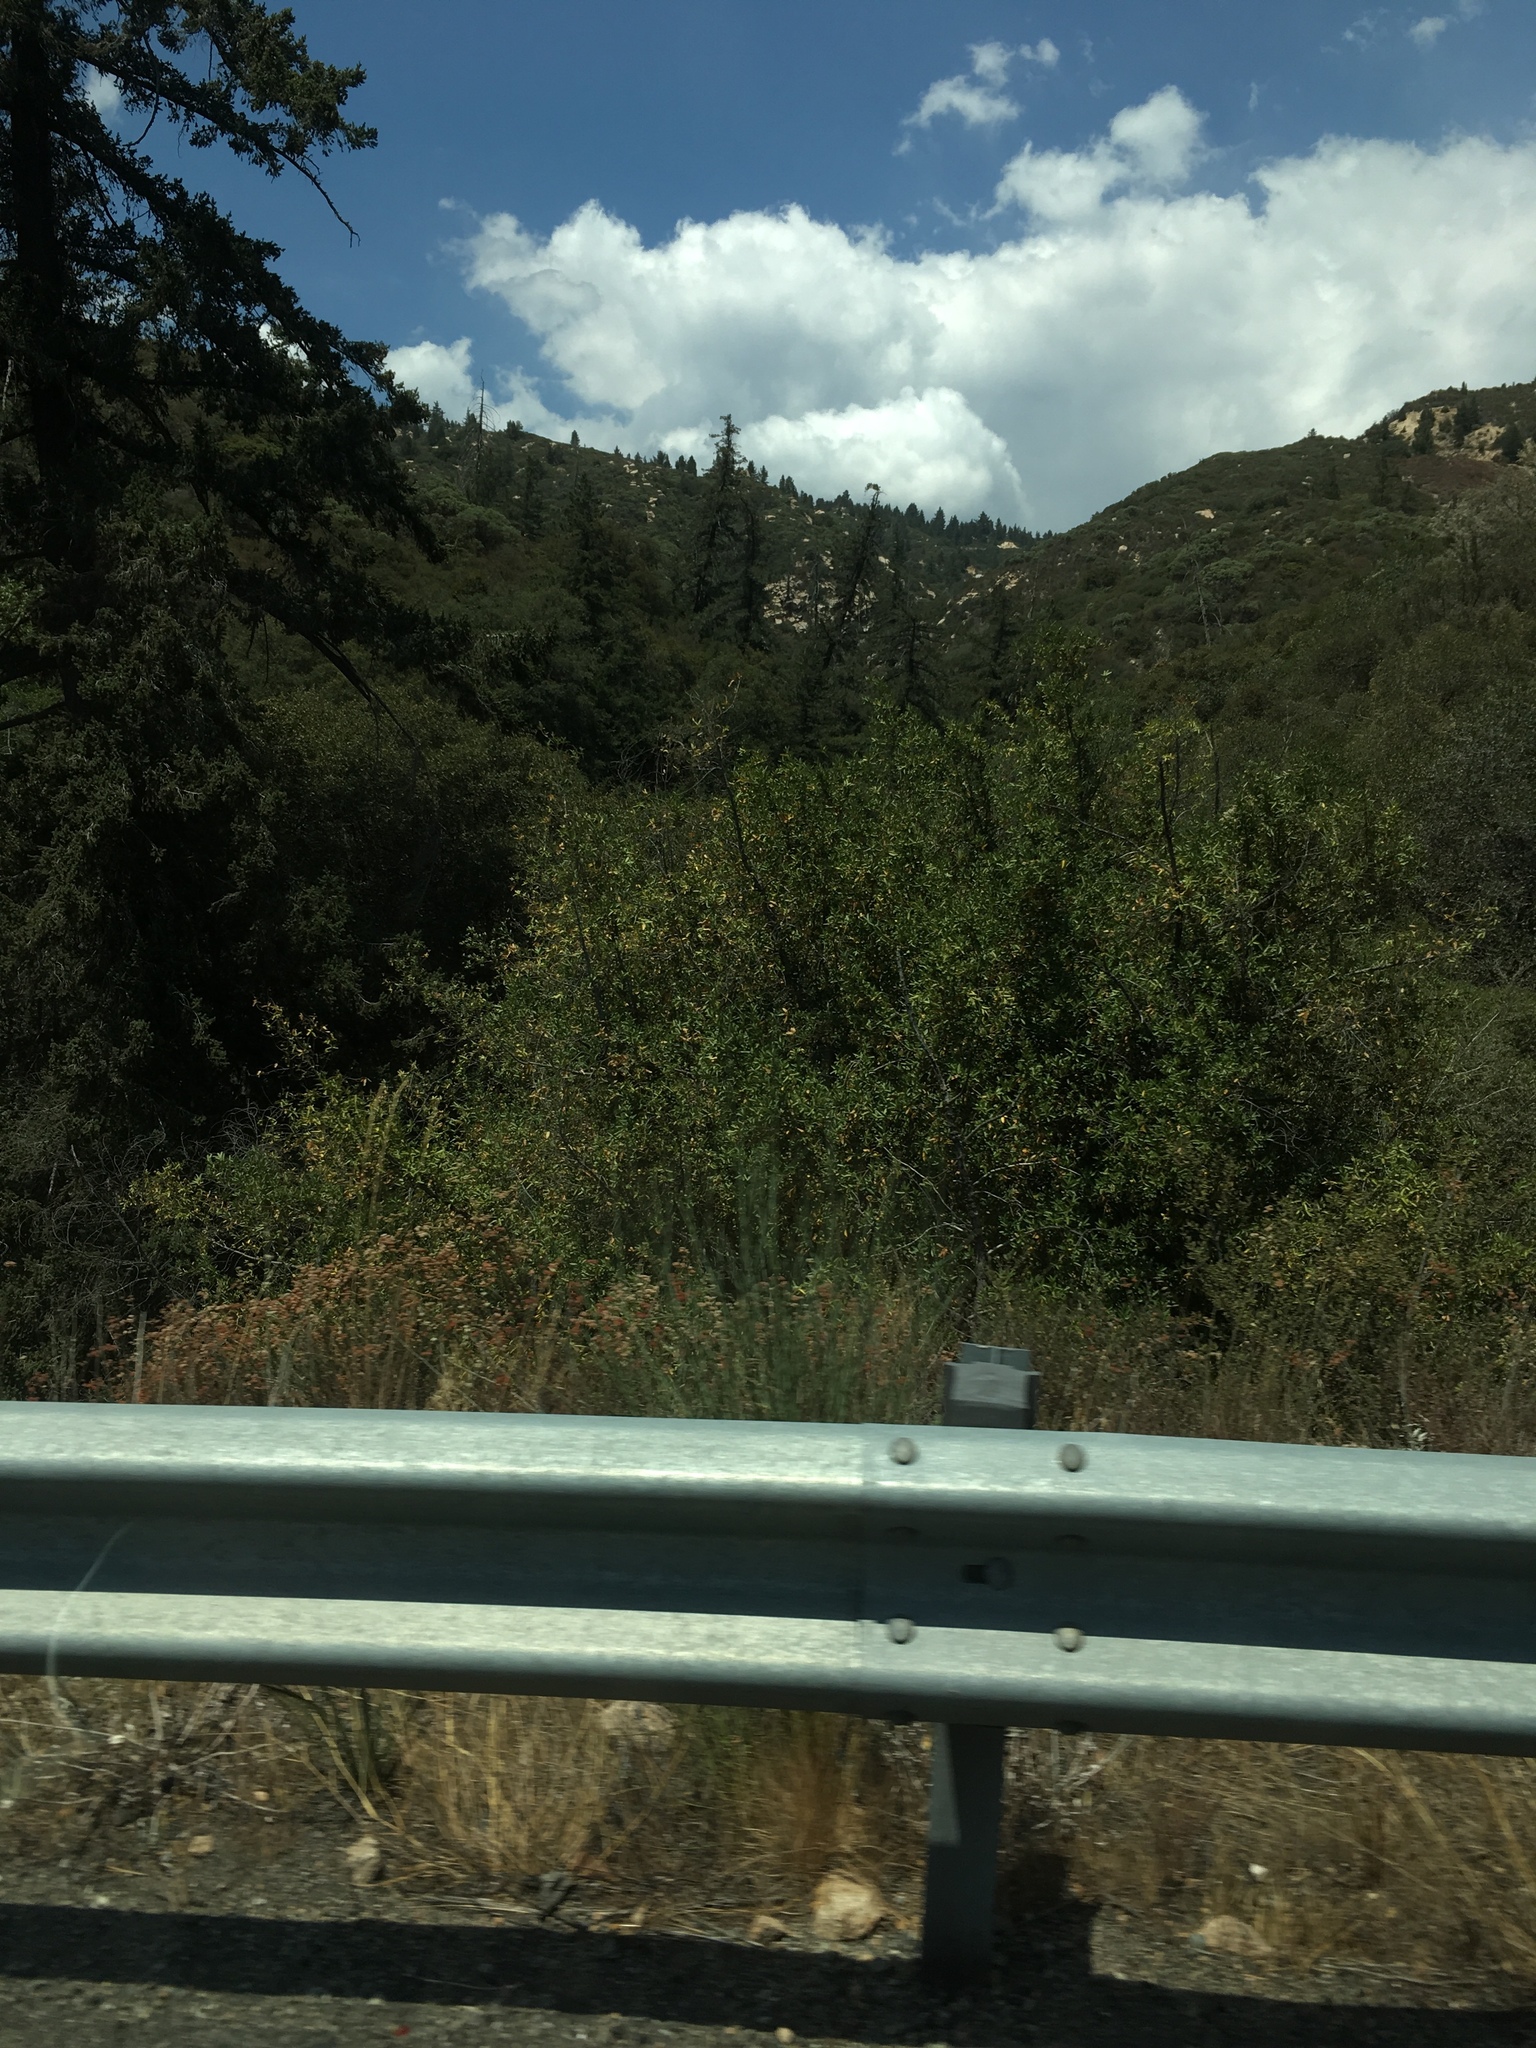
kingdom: Plantae
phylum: Tracheophyta
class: Pinopsida
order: Pinales
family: Pinaceae
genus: Pseudotsuga
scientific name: Pseudotsuga macrocarpa
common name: Big-cone douglas-fir
